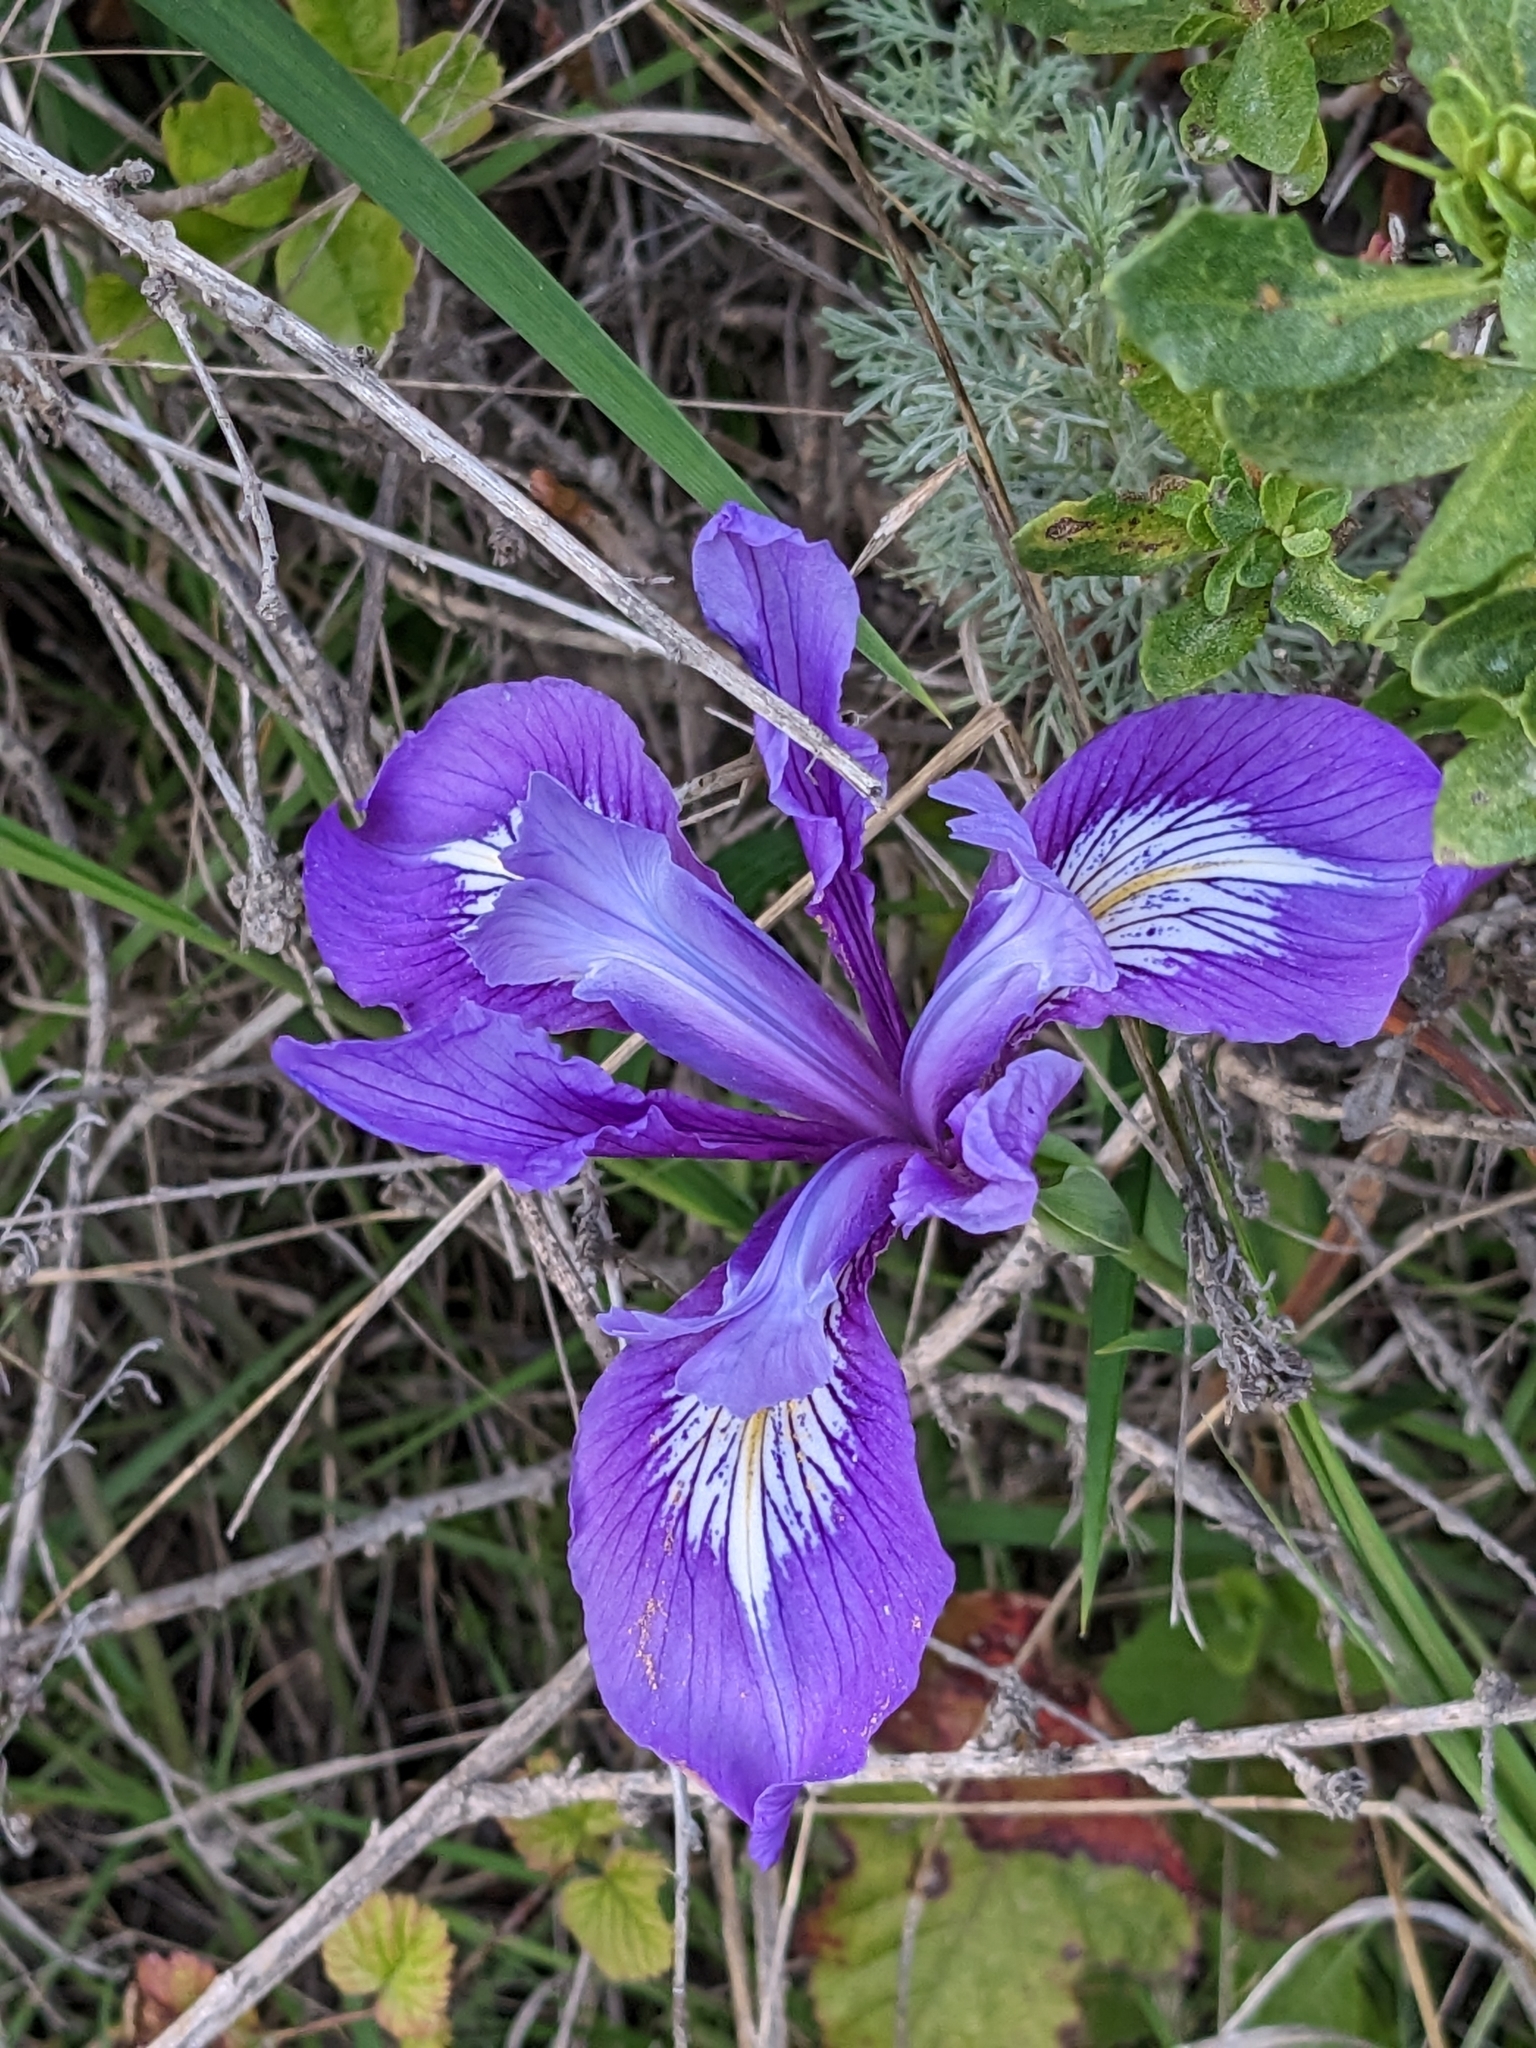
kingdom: Plantae
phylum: Tracheophyta
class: Liliopsida
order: Asparagales
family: Iridaceae
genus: Iris
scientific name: Iris douglasiana
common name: Marin iris
